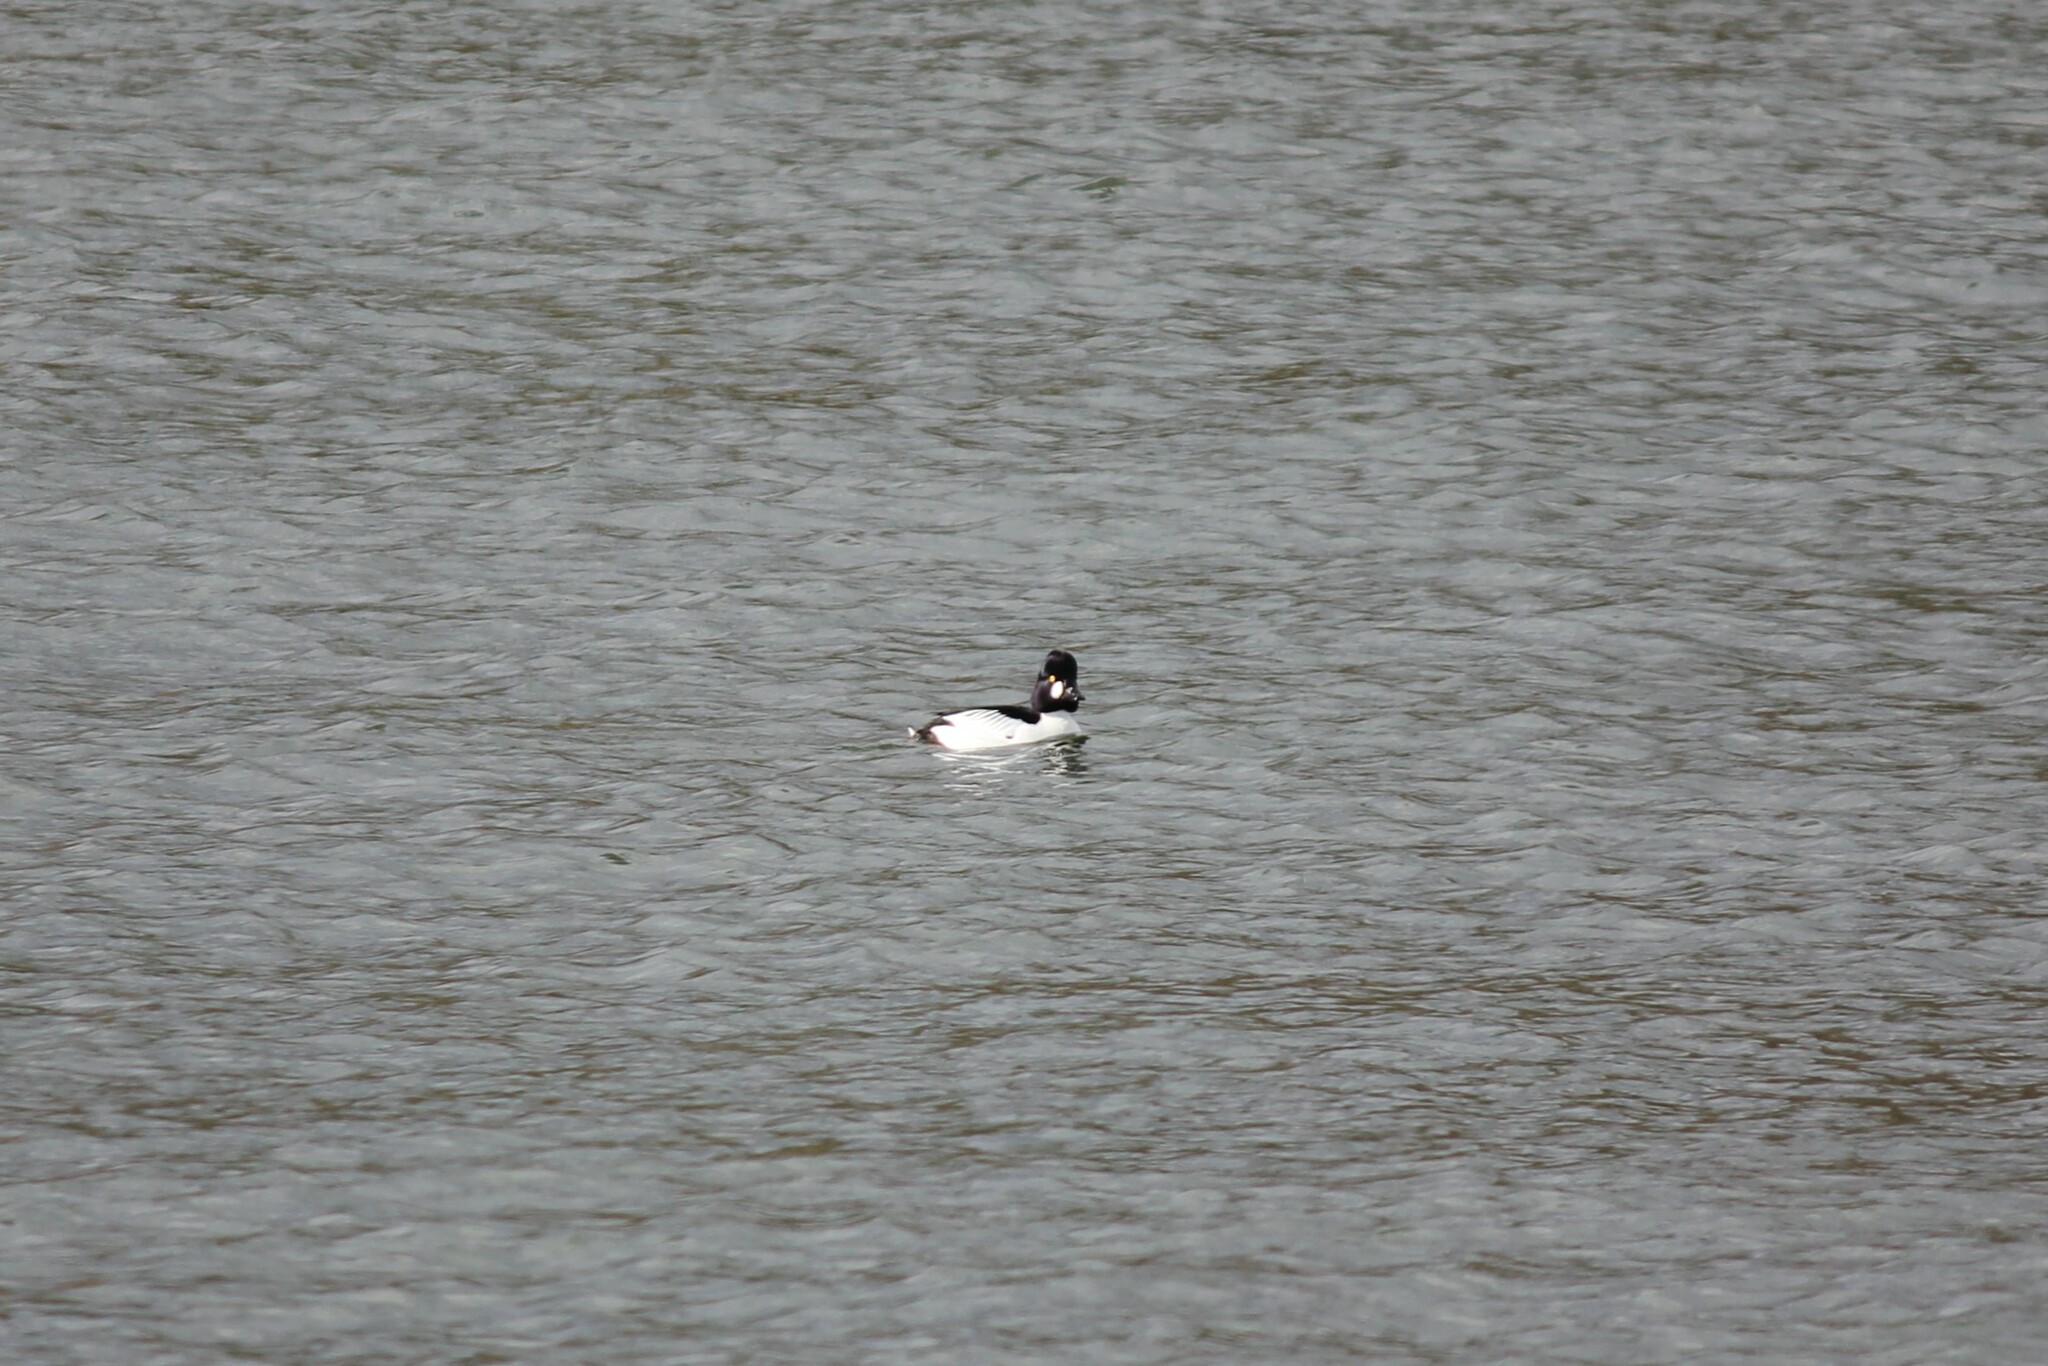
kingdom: Animalia
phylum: Chordata
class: Aves
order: Anseriformes
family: Anatidae
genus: Bucephala
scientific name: Bucephala clangula
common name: Common goldeneye
